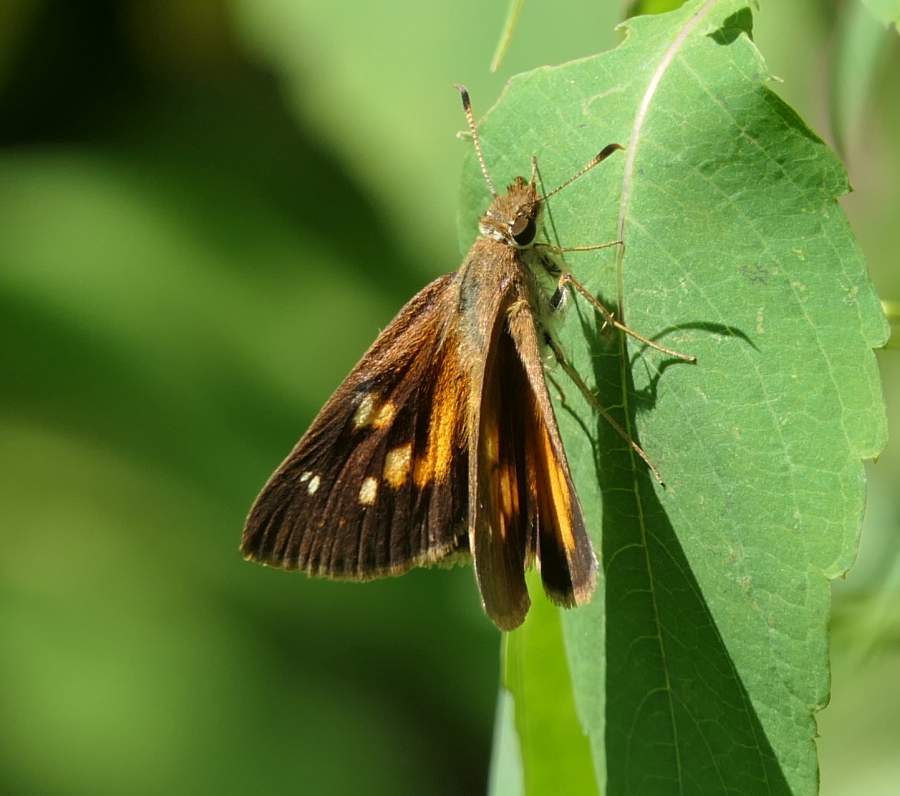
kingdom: Animalia
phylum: Arthropoda
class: Insecta
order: Lepidoptera
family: Hesperiidae
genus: Poanes
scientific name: Poanes viator
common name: Broad-winged skipper
